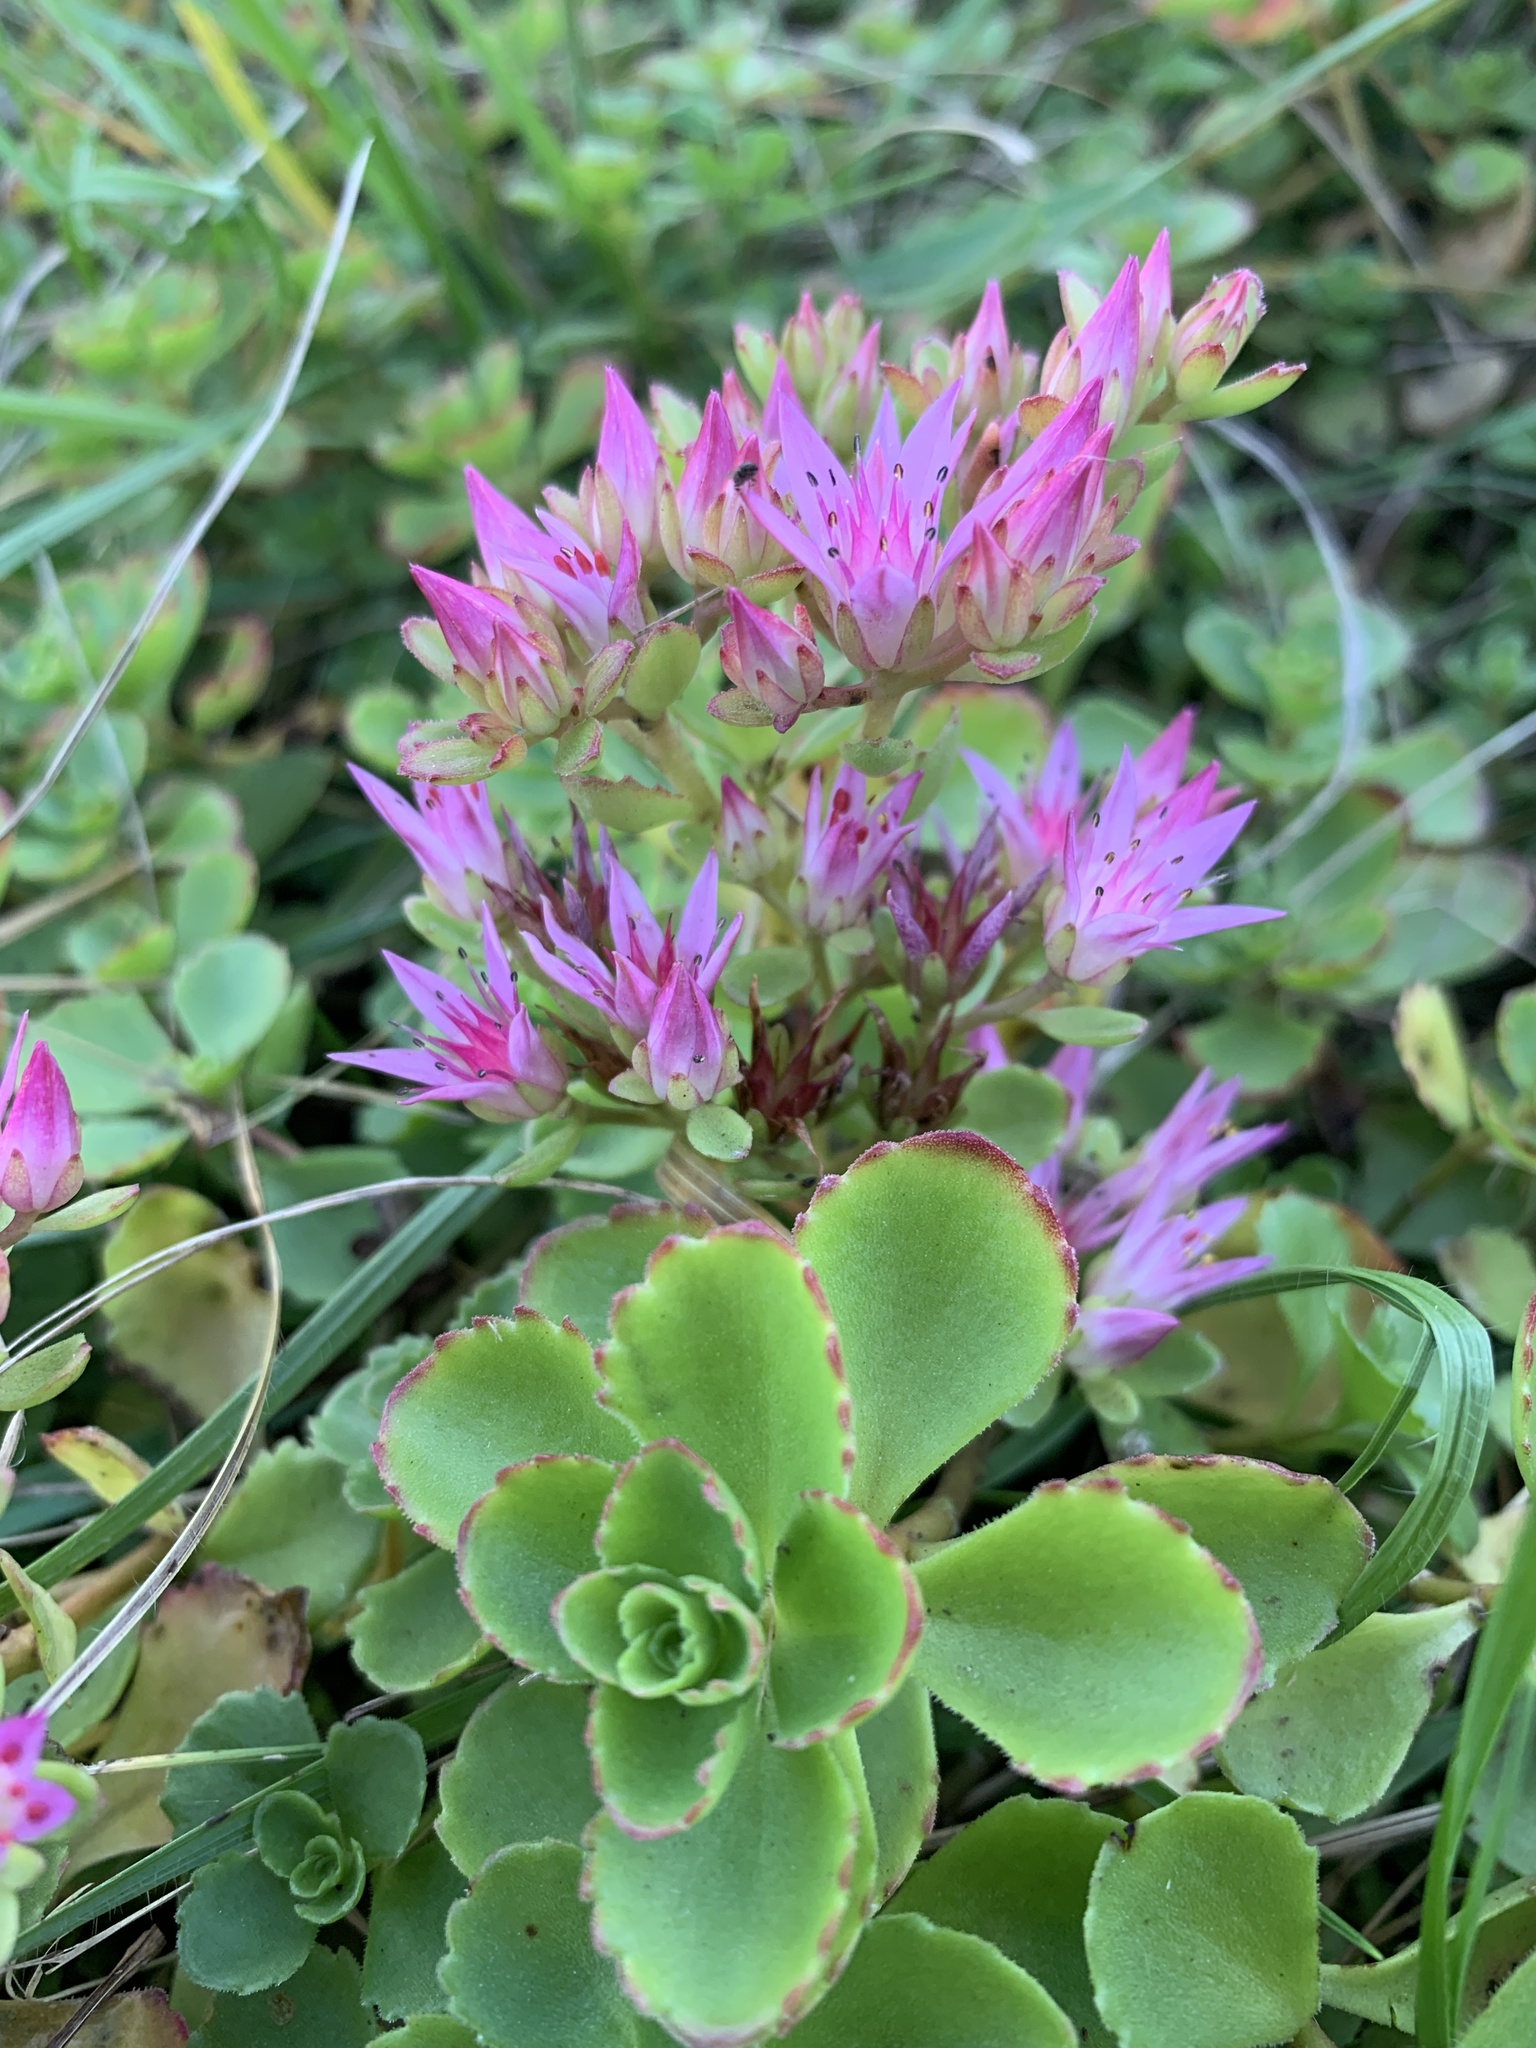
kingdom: Plantae
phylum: Tracheophyta
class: Magnoliopsida
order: Saxifragales
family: Crassulaceae
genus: Phedimus
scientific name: Phedimus spurius
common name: Caucasian stonecrop
